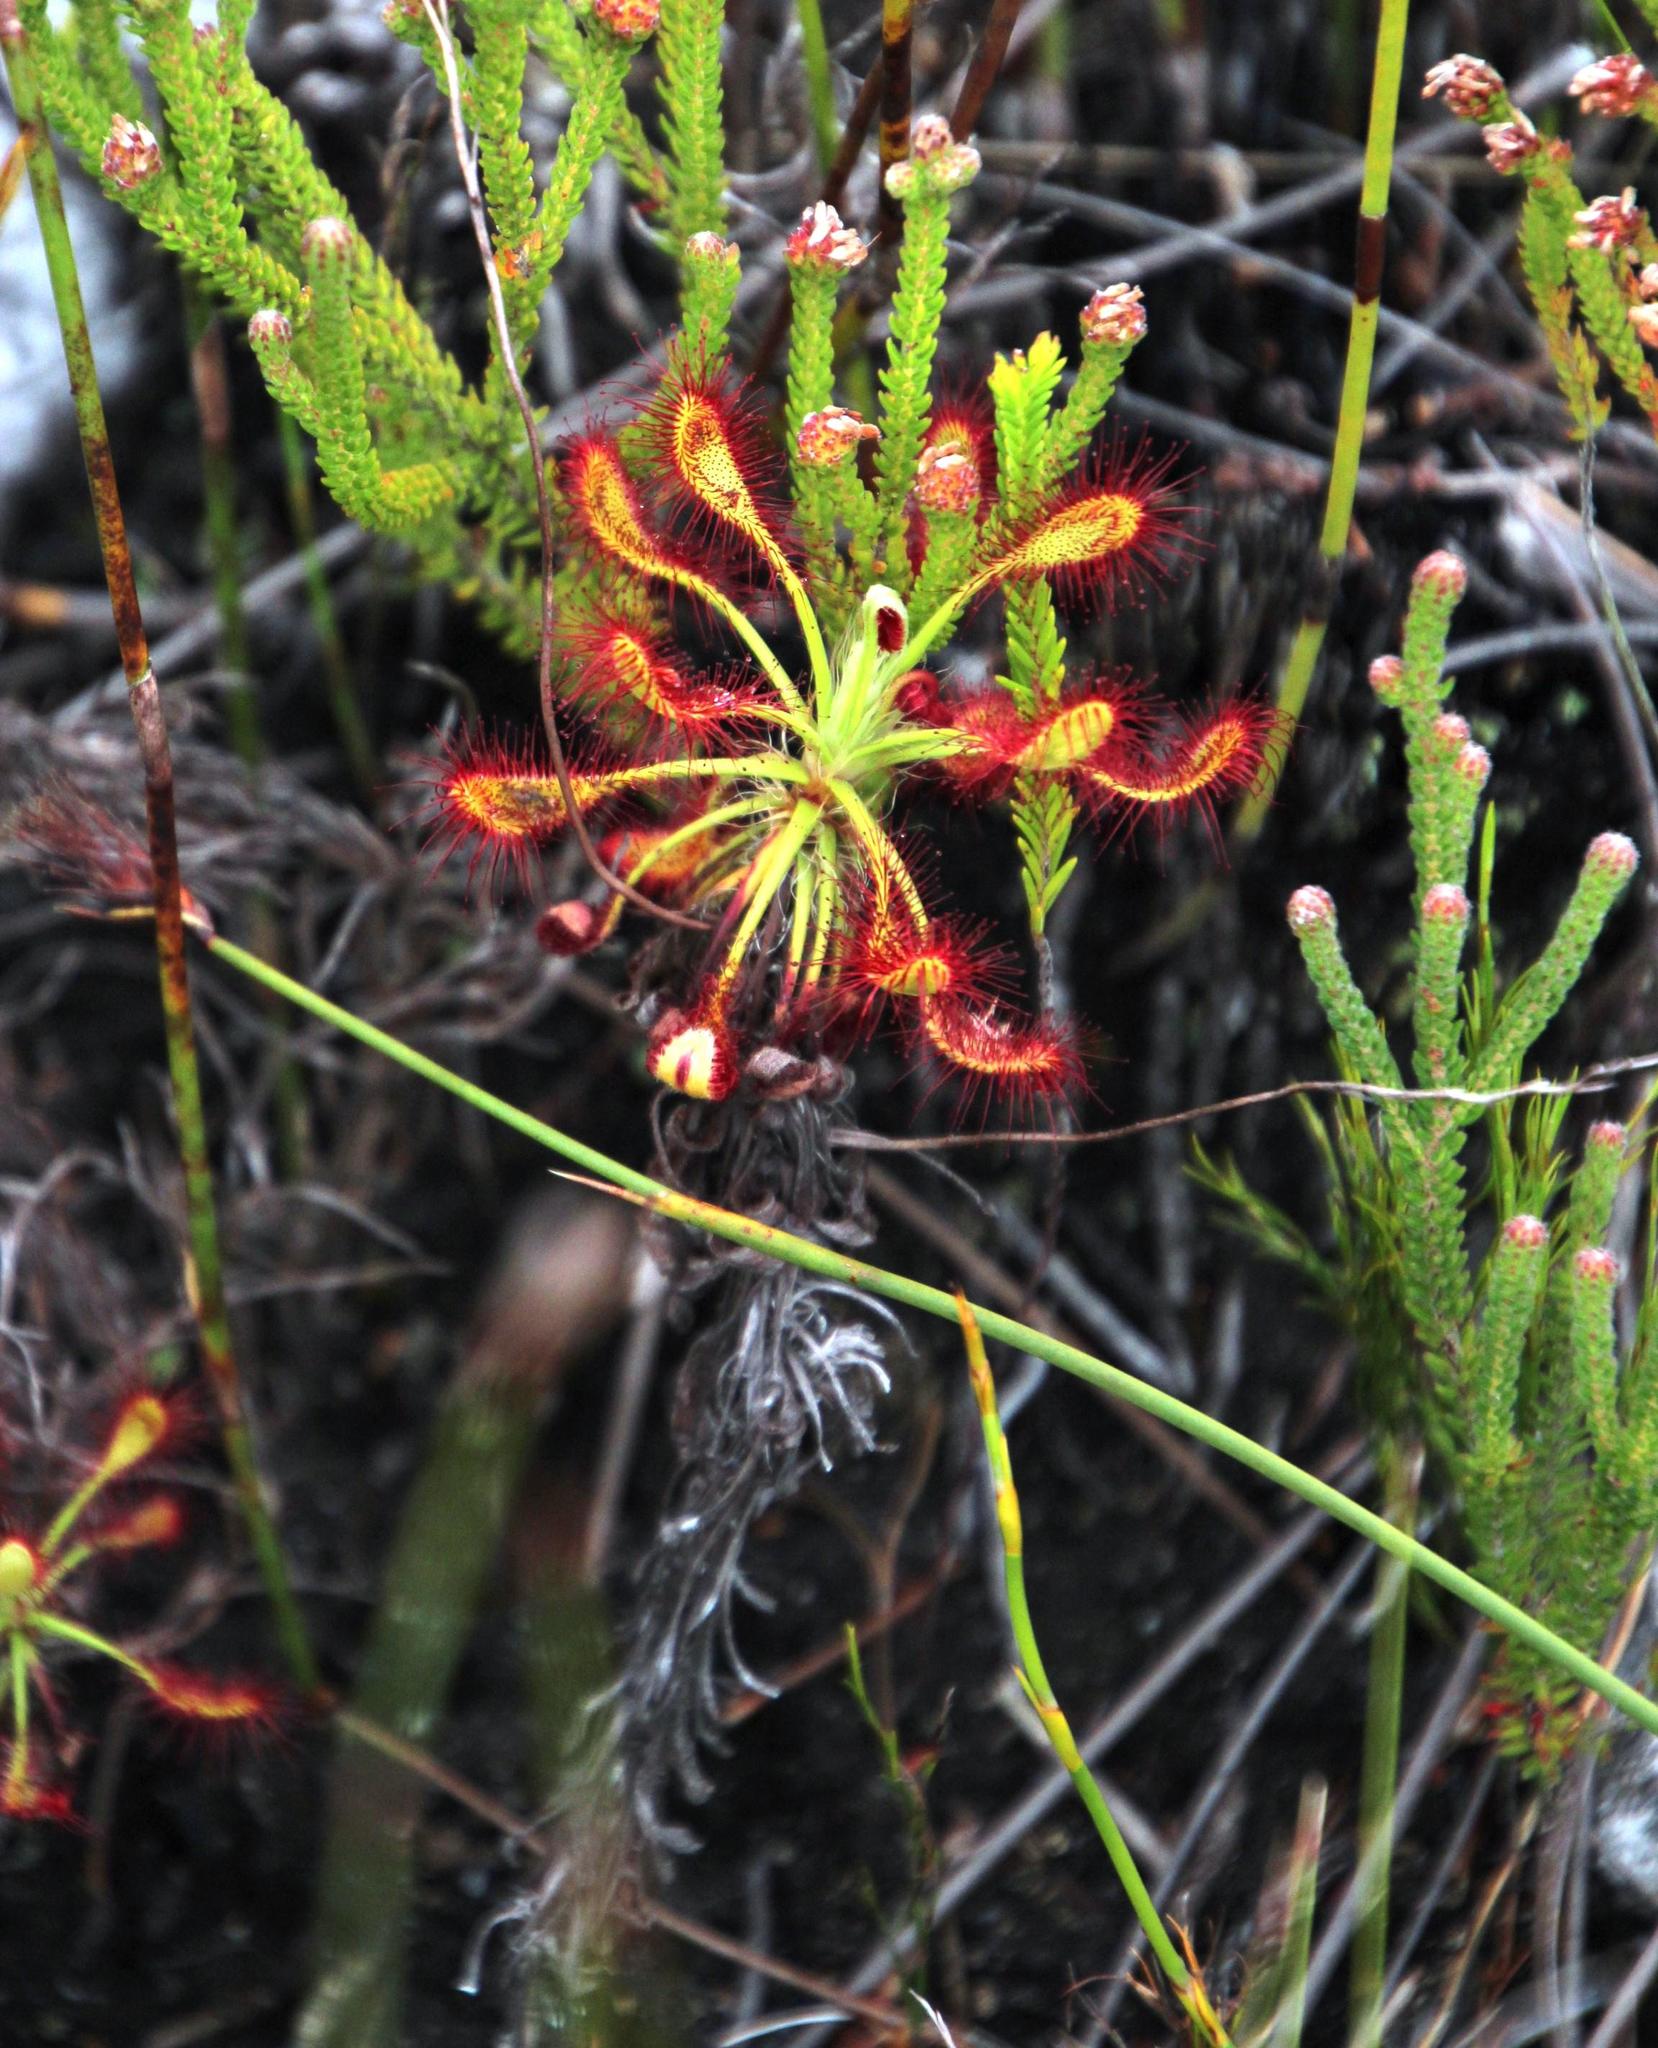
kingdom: Plantae
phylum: Tracheophyta
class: Magnoliopsida
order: Caryophyllales
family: Droseraceae
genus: Drosera
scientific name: Drosera glabripes
